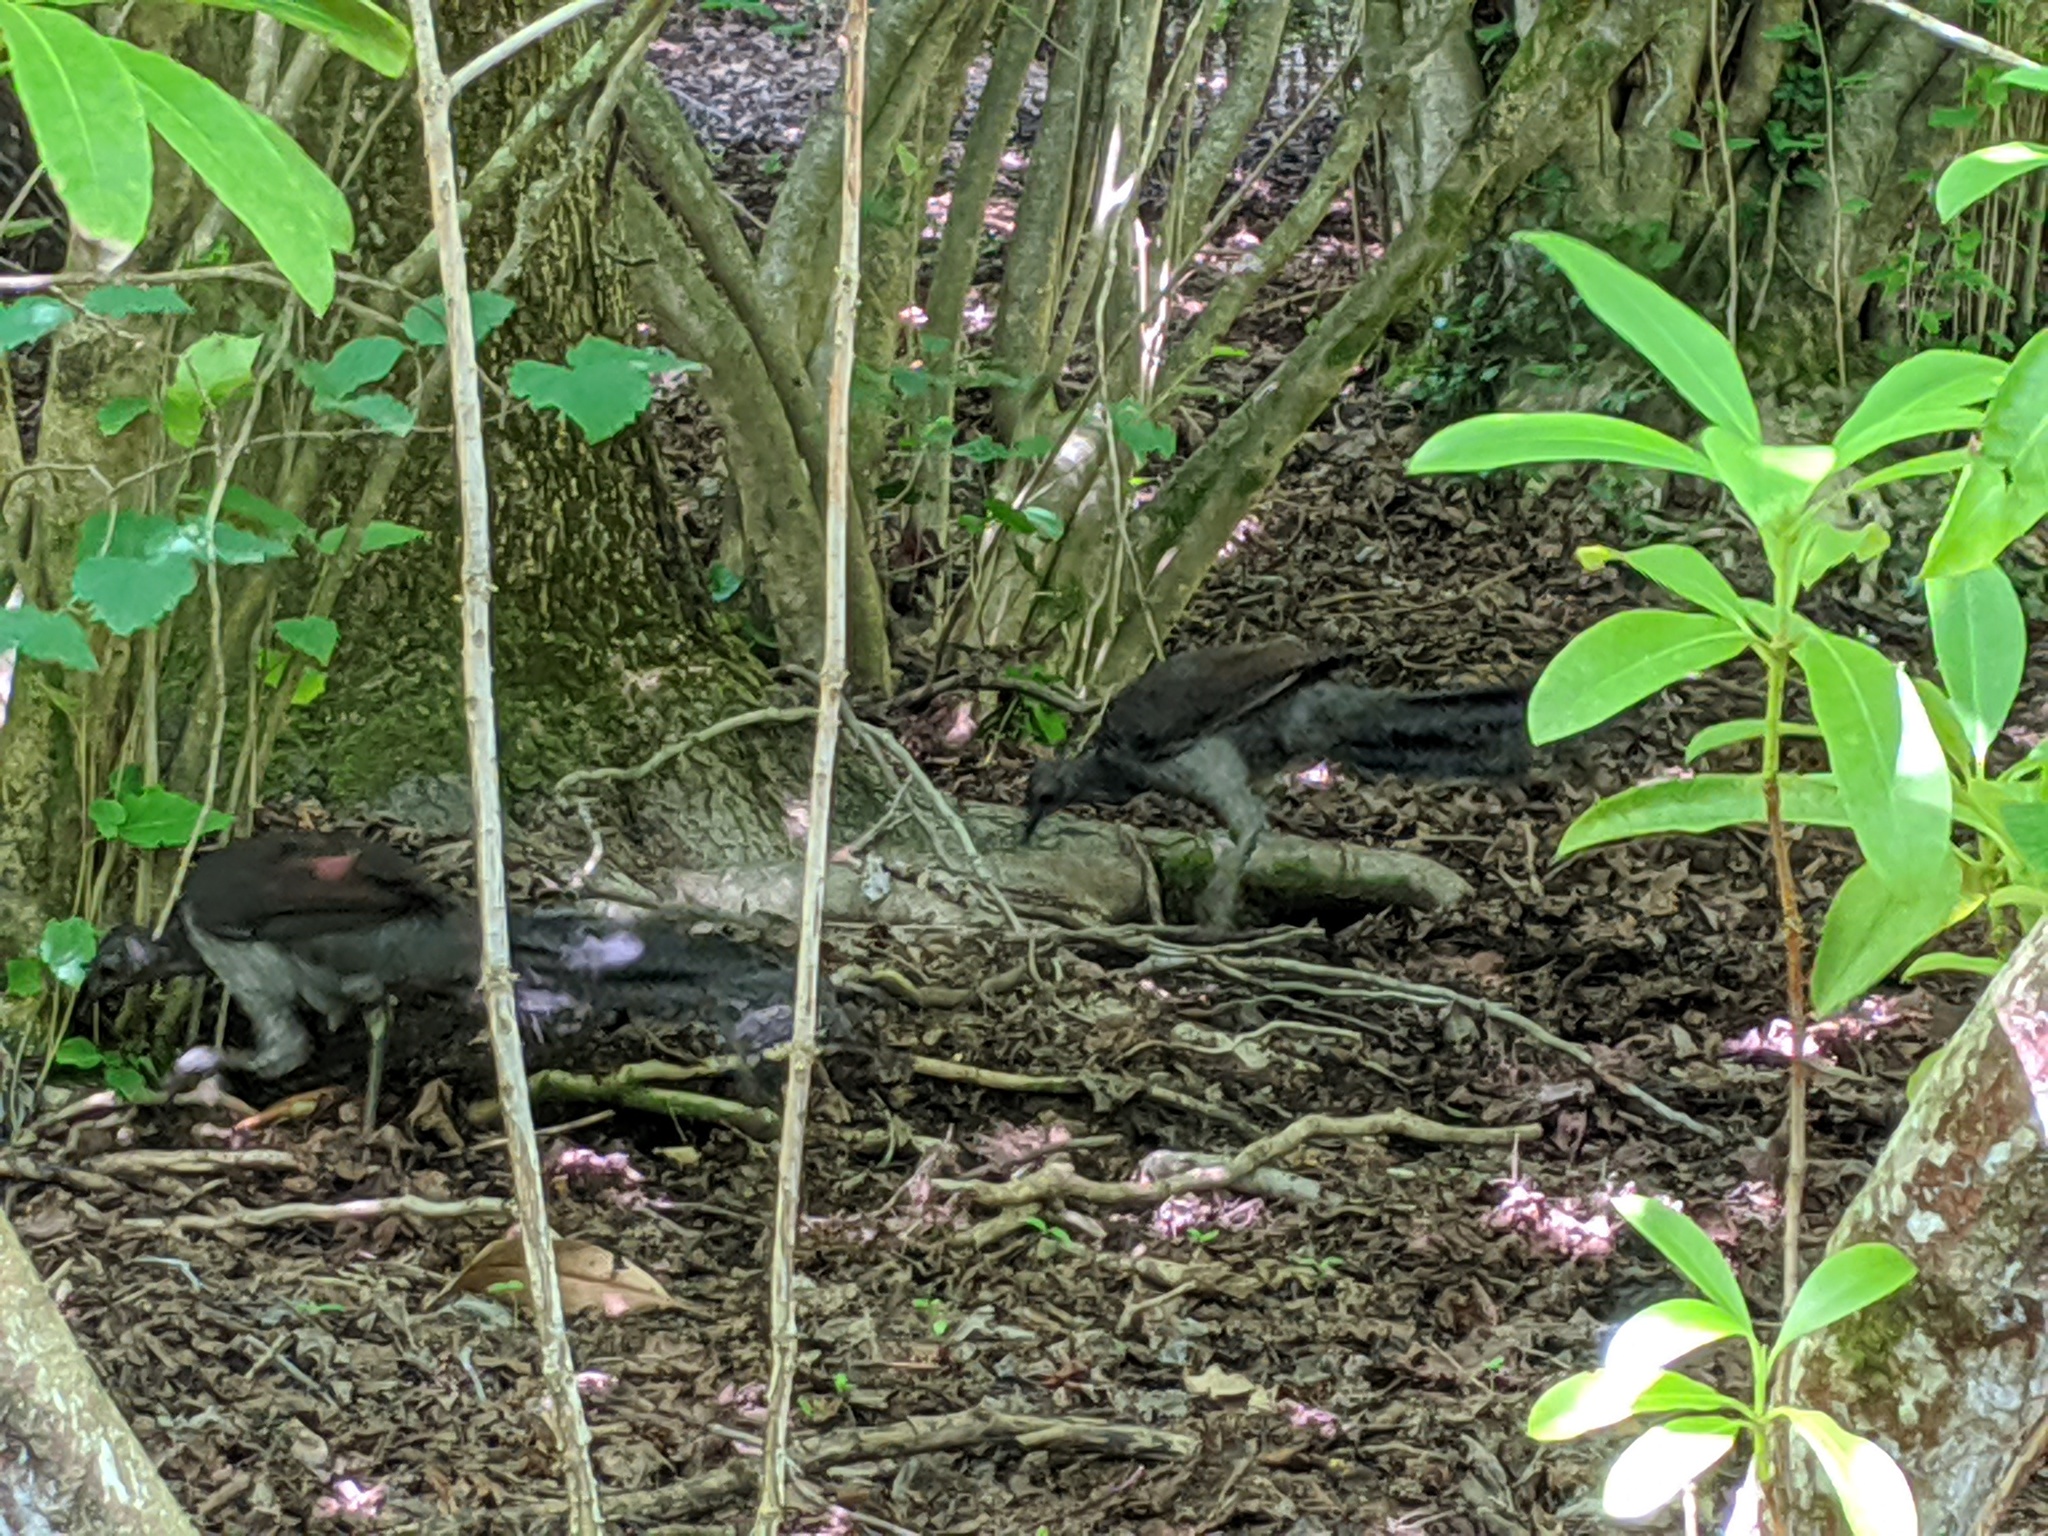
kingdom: Animalia
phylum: Chordata
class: Aves
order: Passeriformes
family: Menuridae
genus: Menura
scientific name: Menura novaehollandiae
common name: Superb lyrebird
